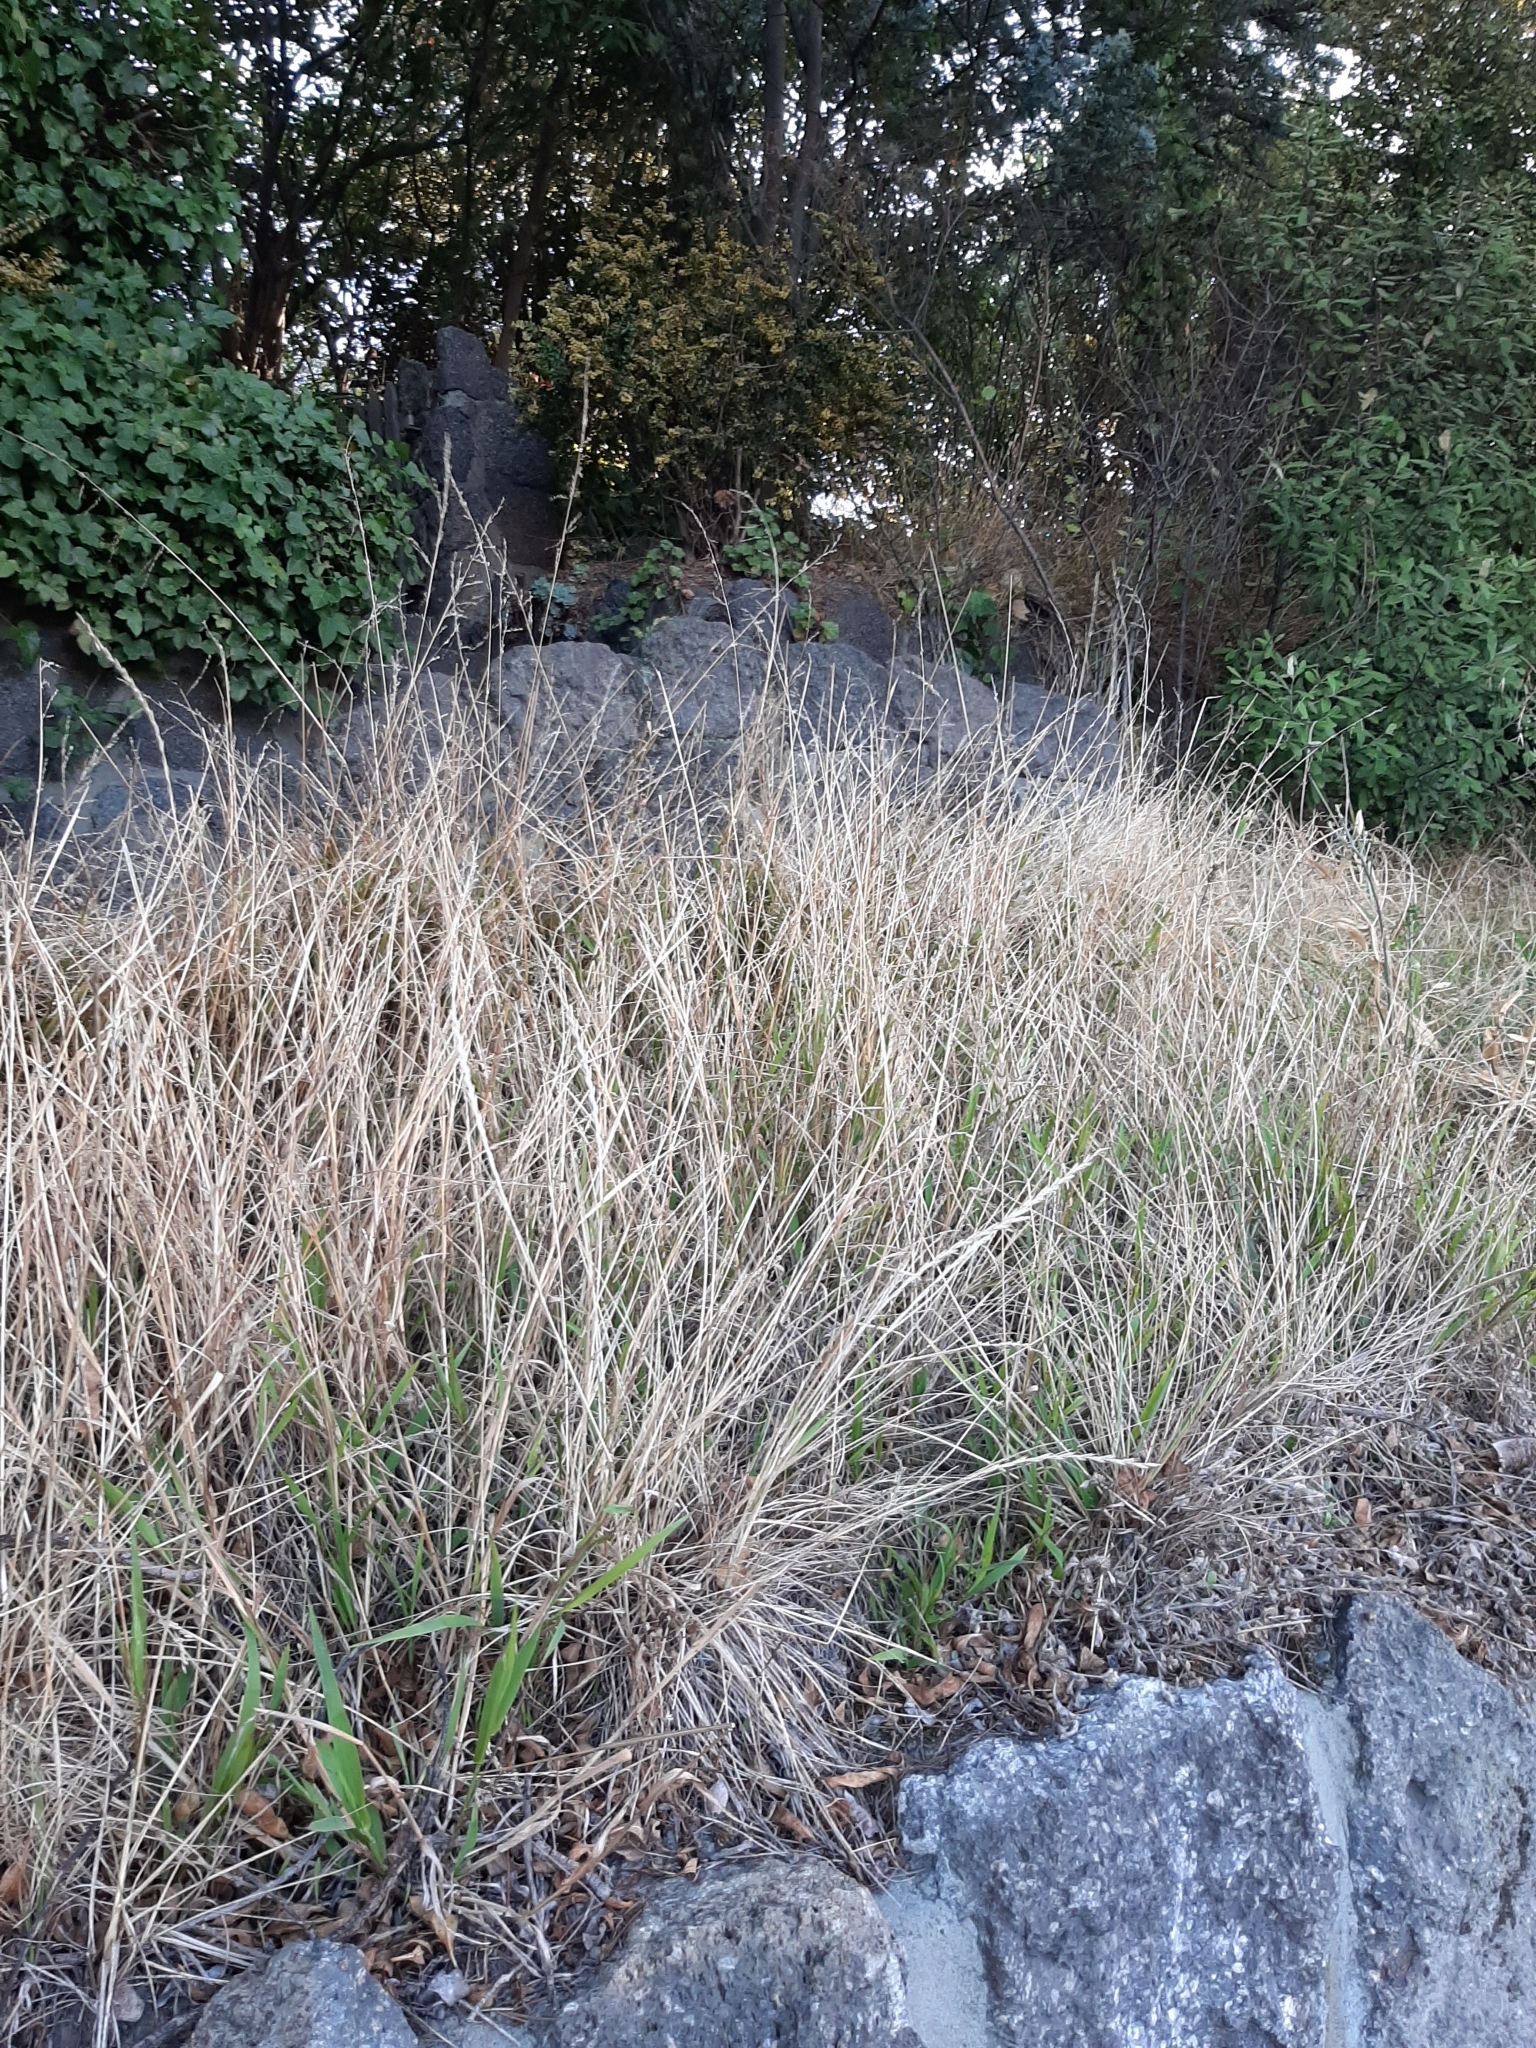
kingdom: Plantae
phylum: Tracheophyta
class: Liliopsida
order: Poales
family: Poaceae
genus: Ehrharta
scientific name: Ehrharta erecta
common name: Panic veldtgrass
